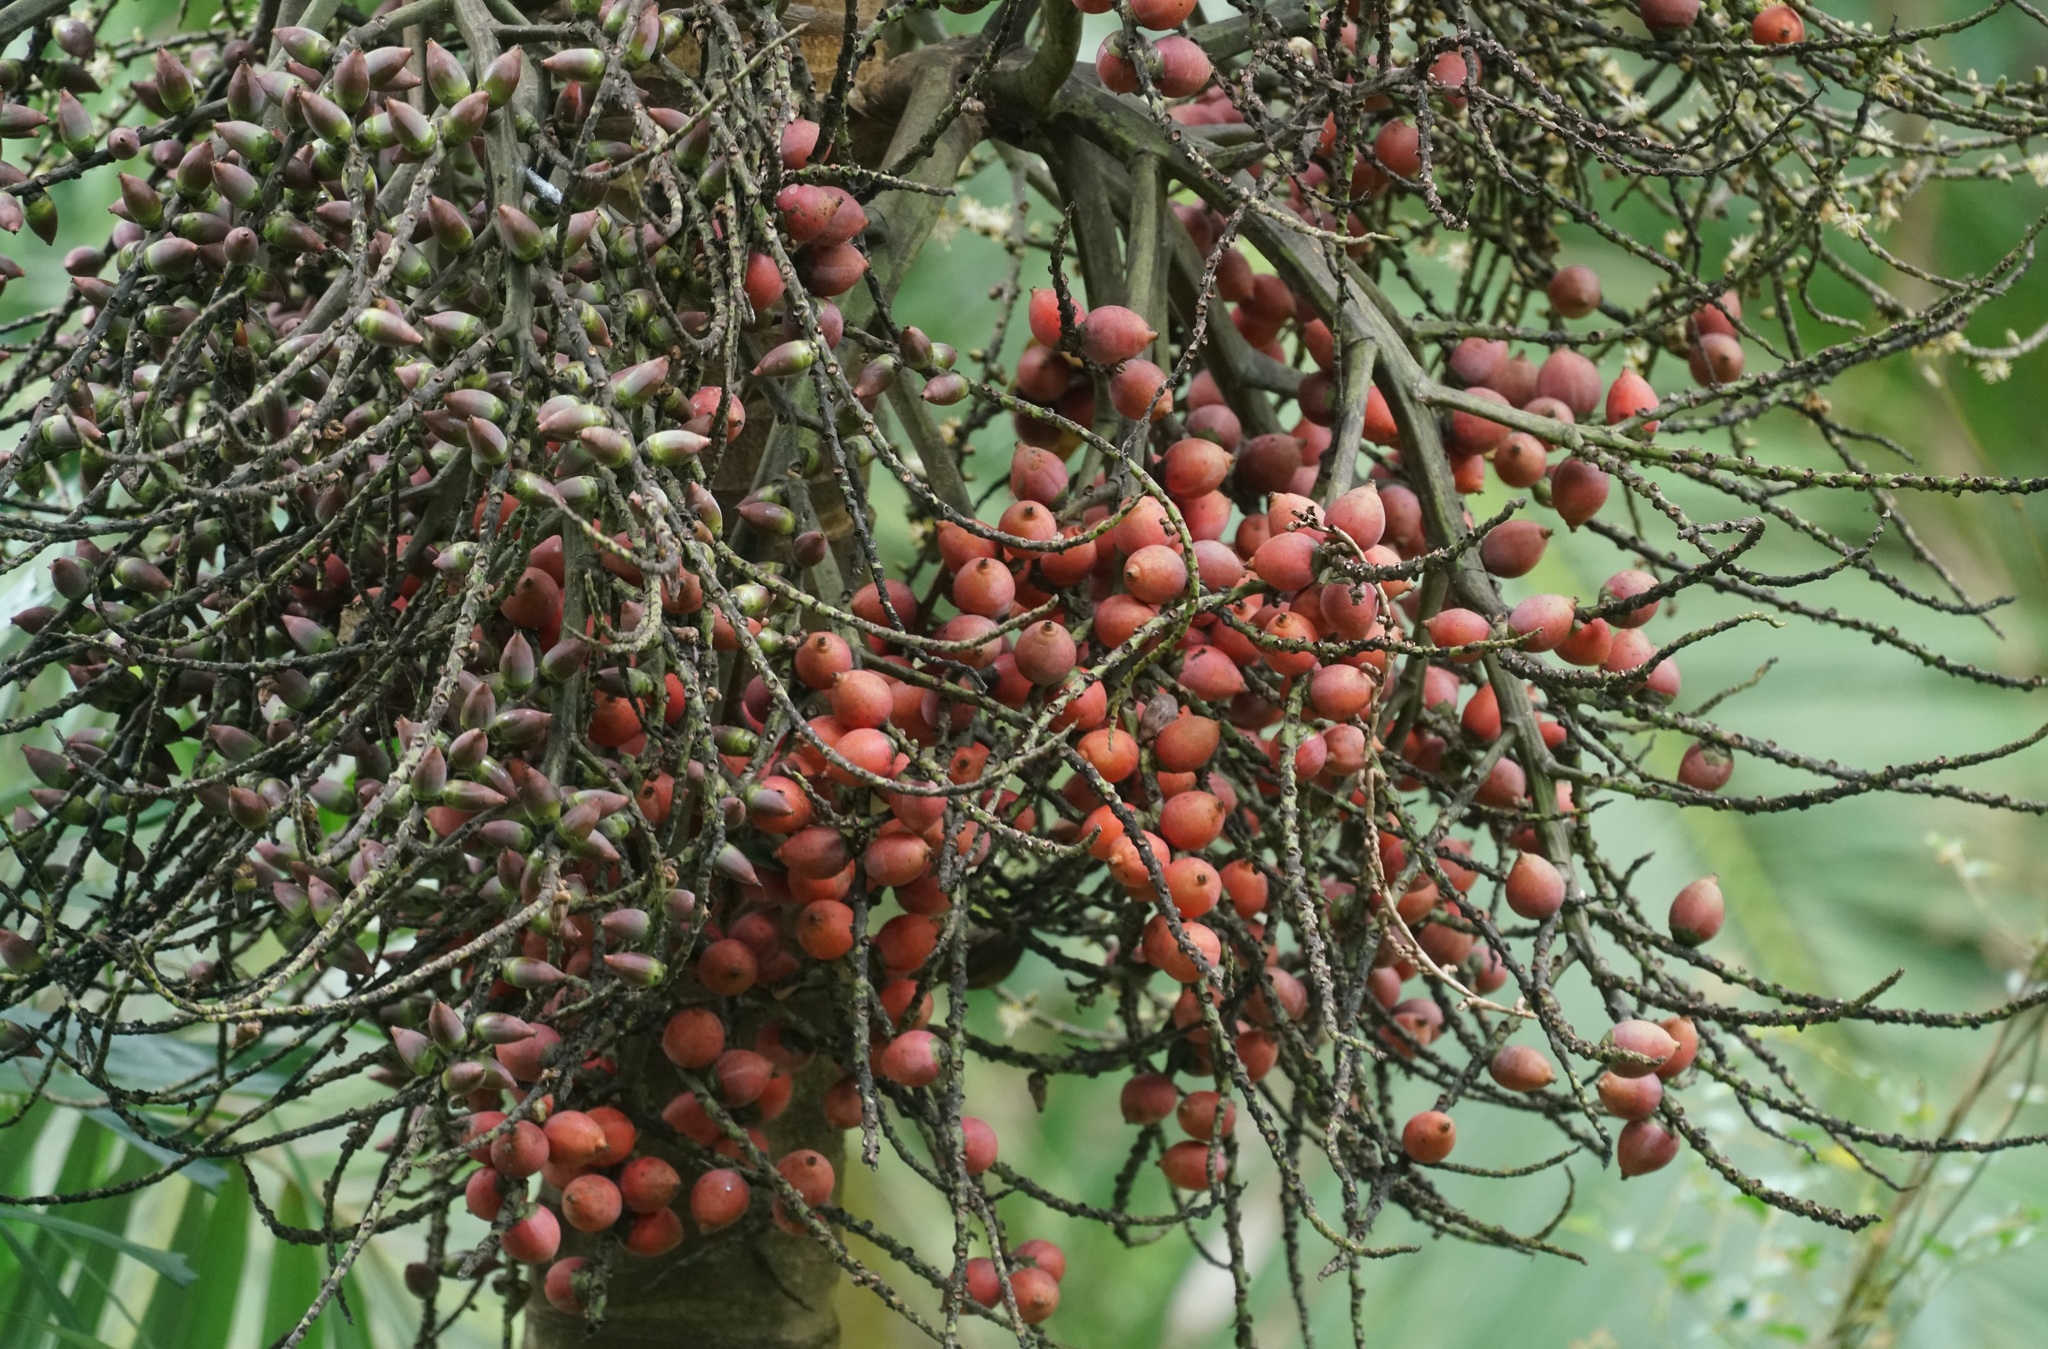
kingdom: Plantae
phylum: Tracheophyta
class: Liliopsida
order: Arecales
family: Arecaceae
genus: Normanbya
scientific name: Normanbya normanbyi
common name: Black palm
